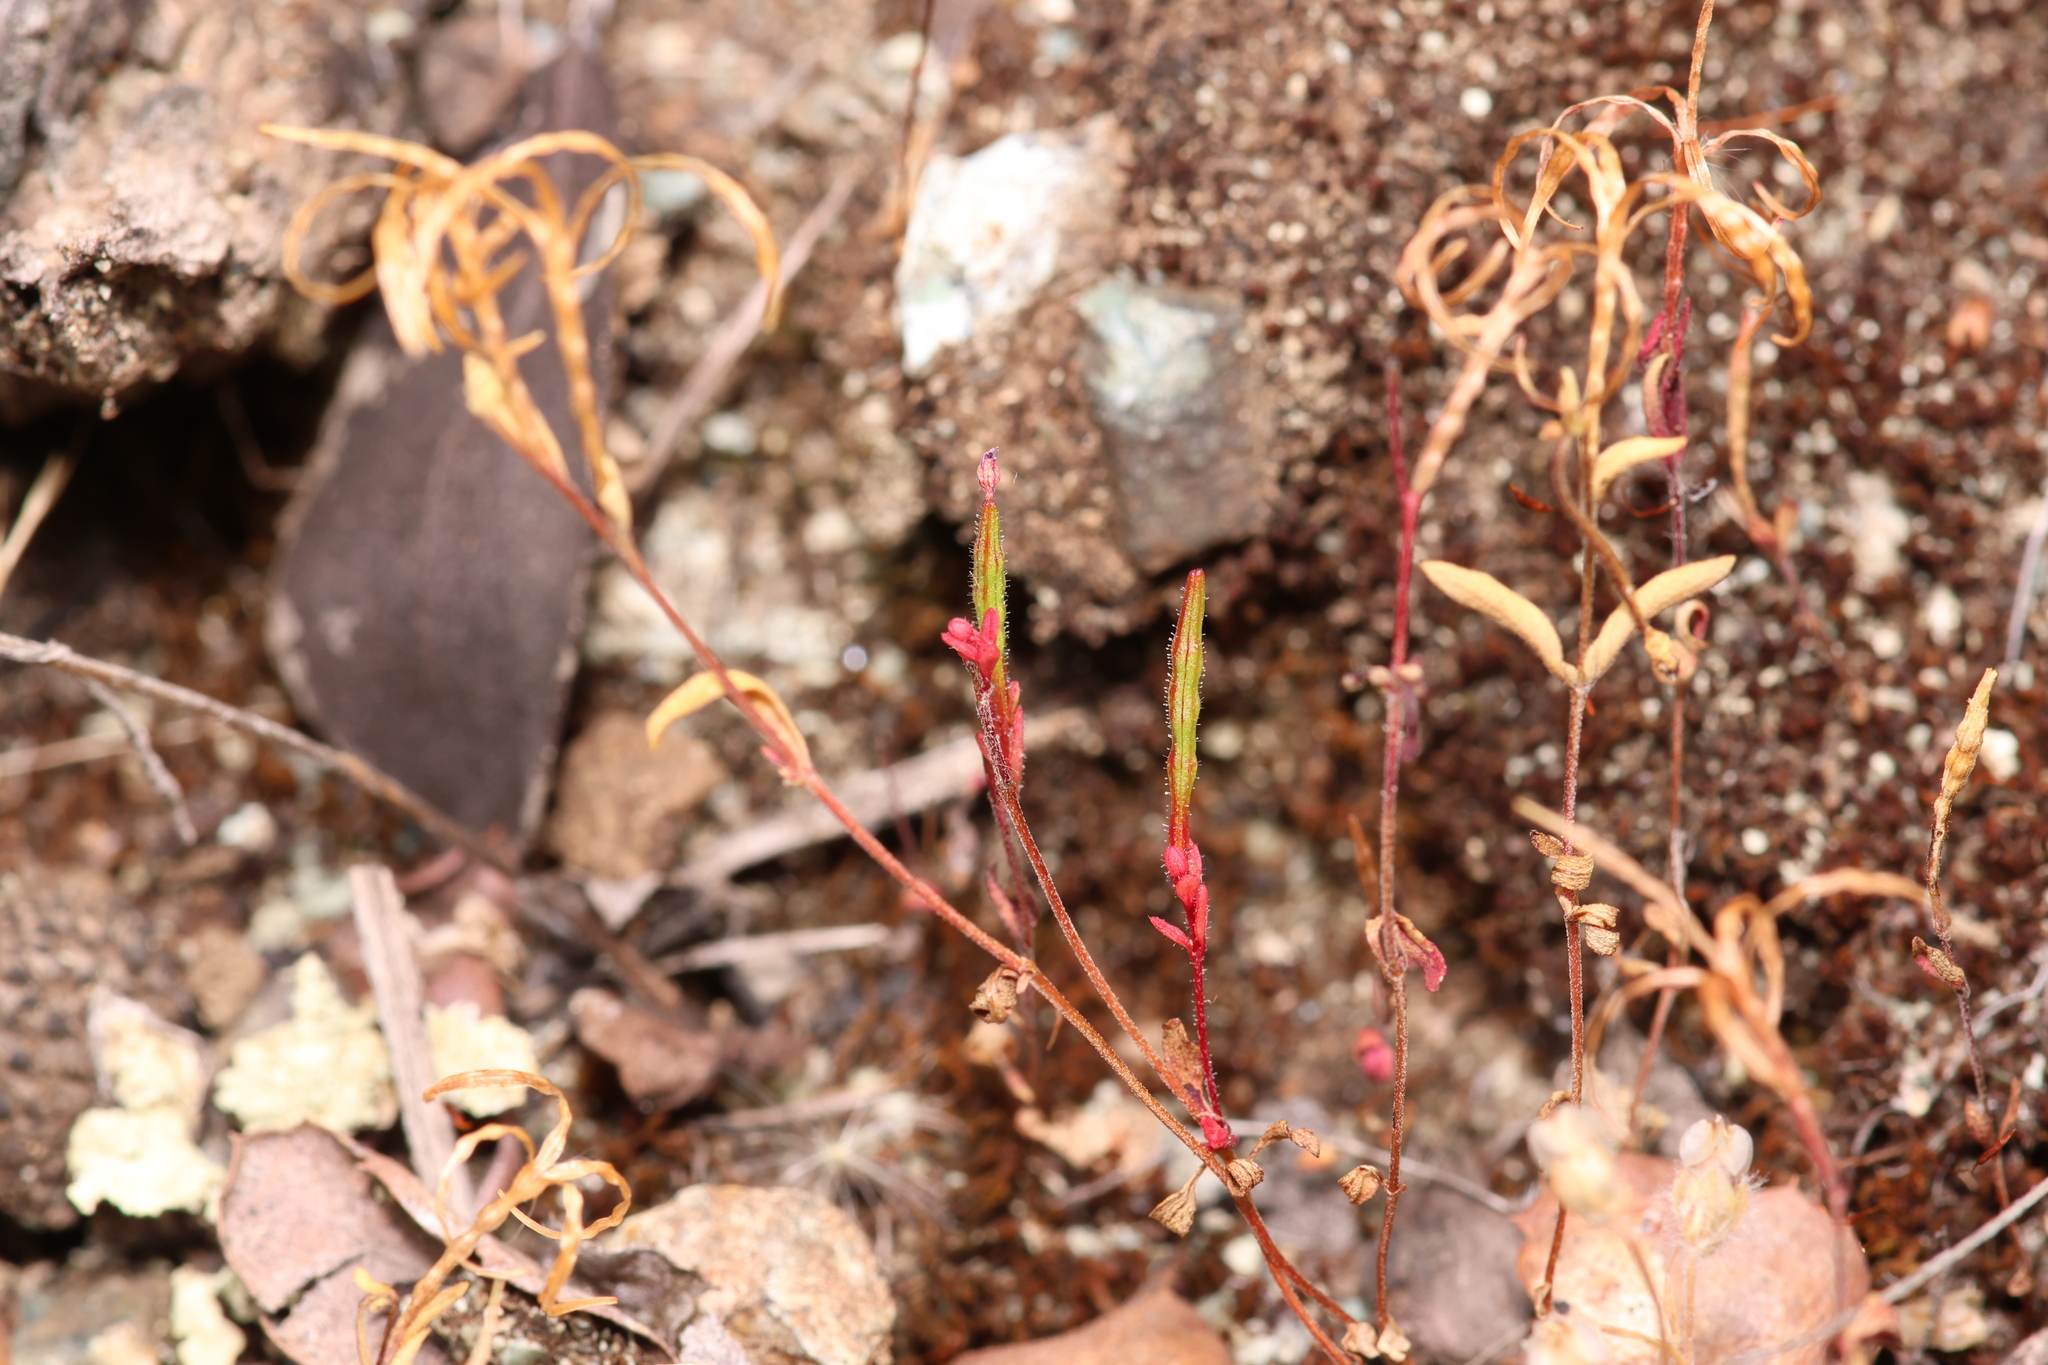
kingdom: Plantae
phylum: Tracheophyta
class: Magnoliopsida
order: Myrtales
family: Onagraceae
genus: Epilobium
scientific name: Epilobium minutum
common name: Chaparral willowherb
